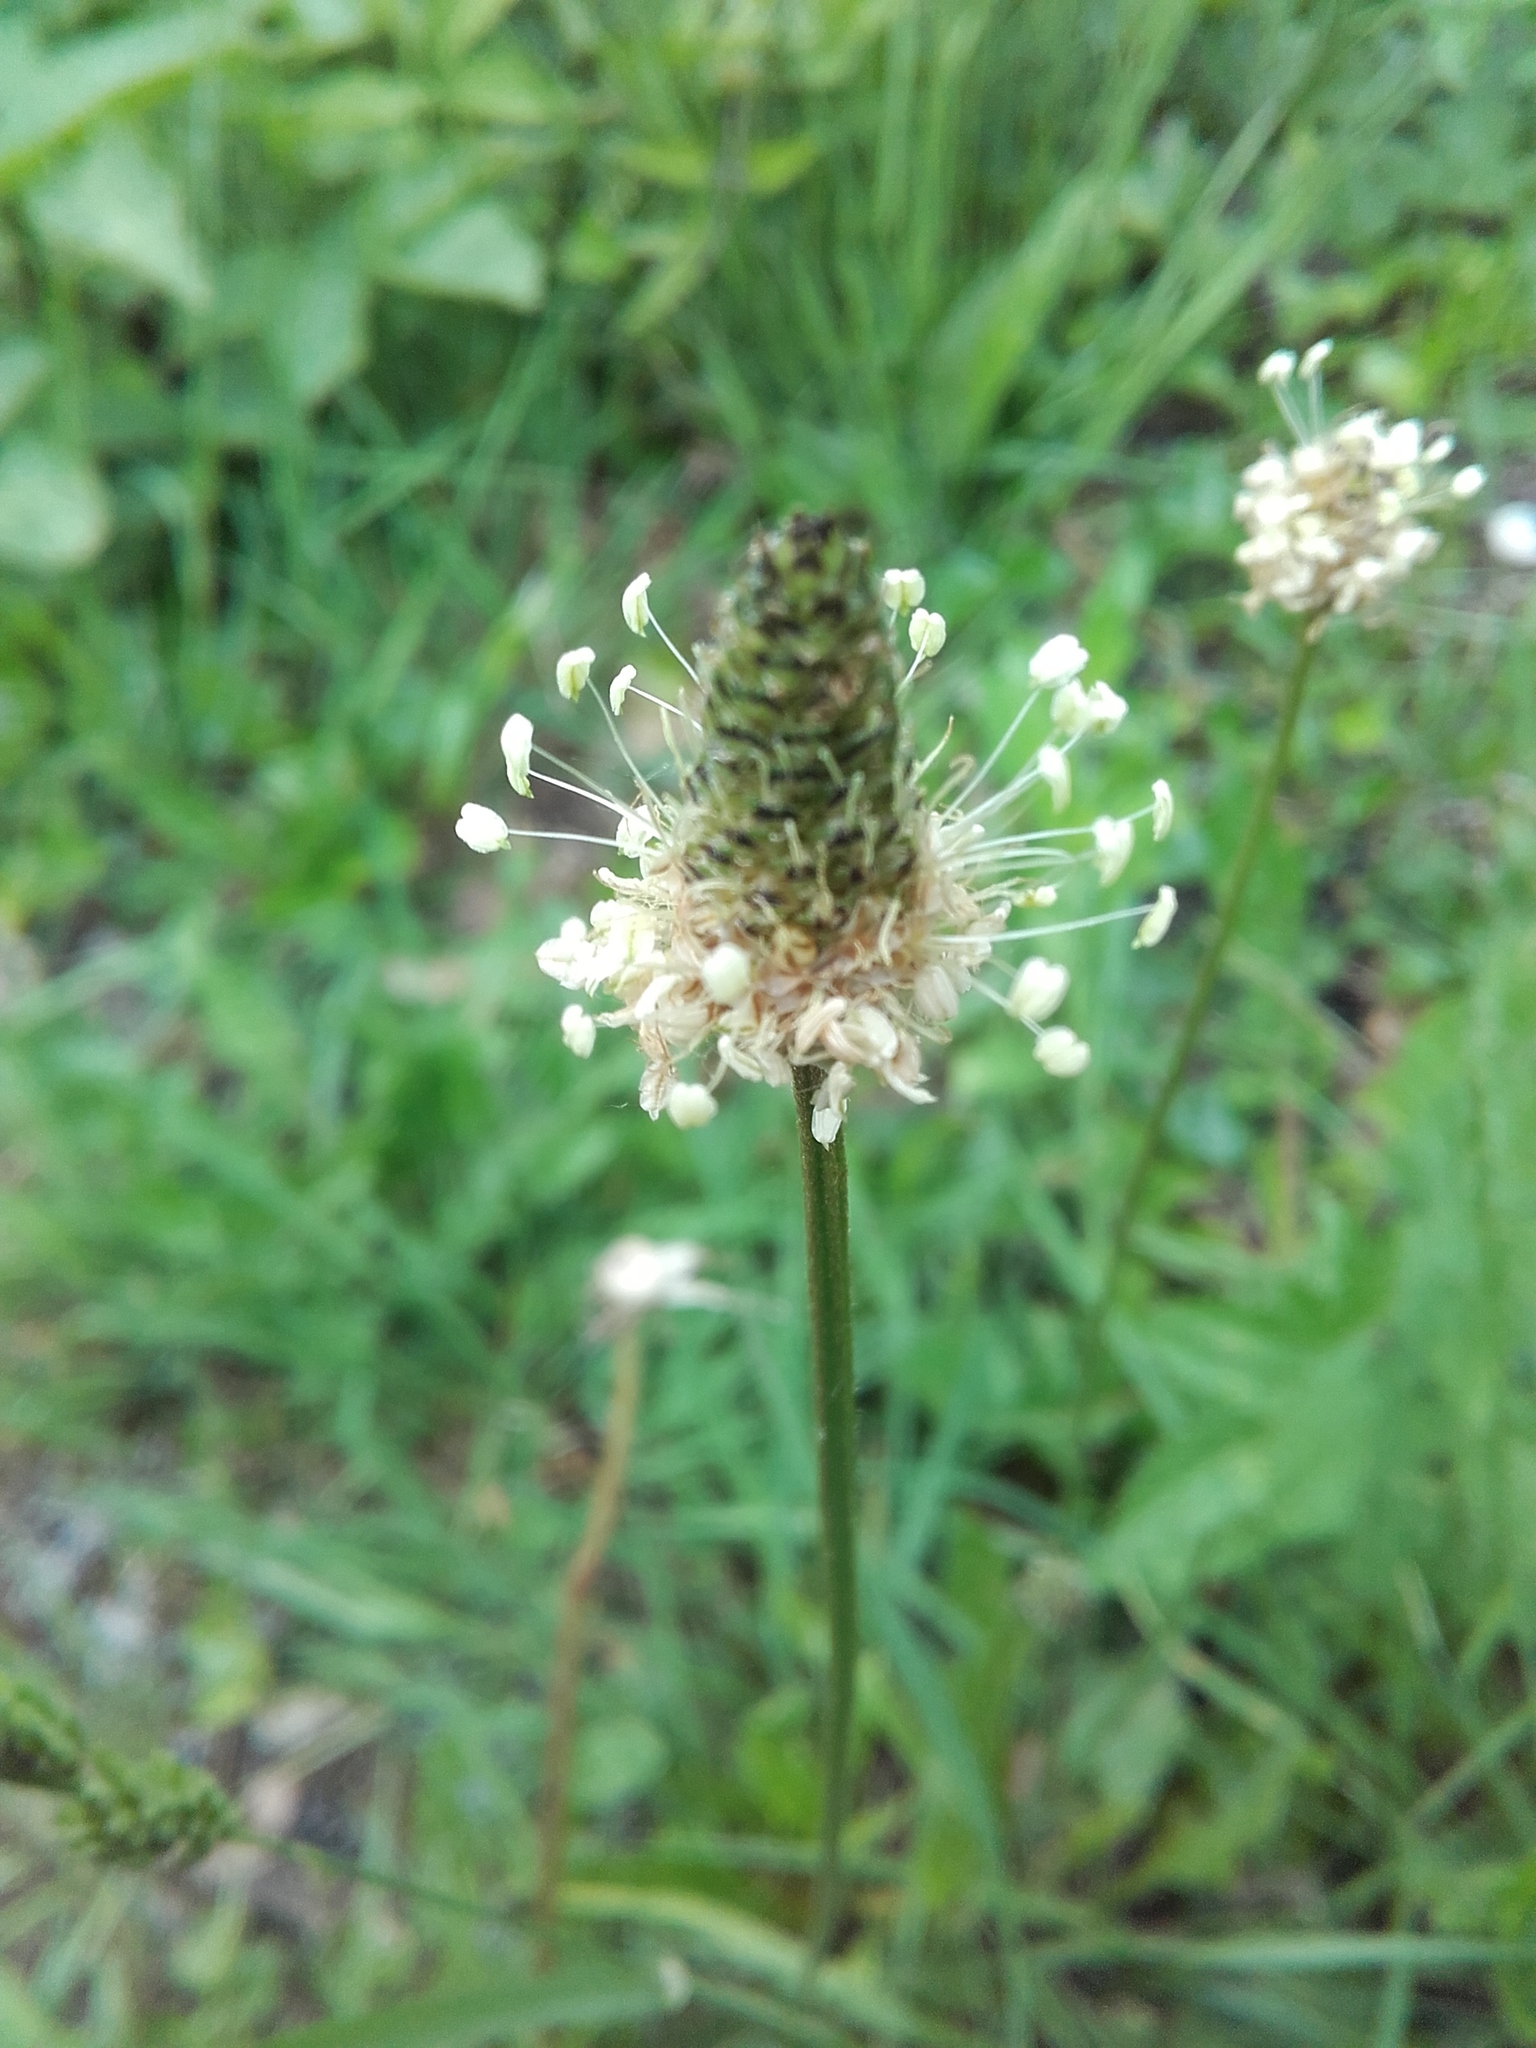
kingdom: Plantae
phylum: Tracheophyta
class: Magnoliopsida
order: Lamiales
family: Plantaginaceae
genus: Plantago
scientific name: Plantago lanceolata
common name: Ribwort plantain
